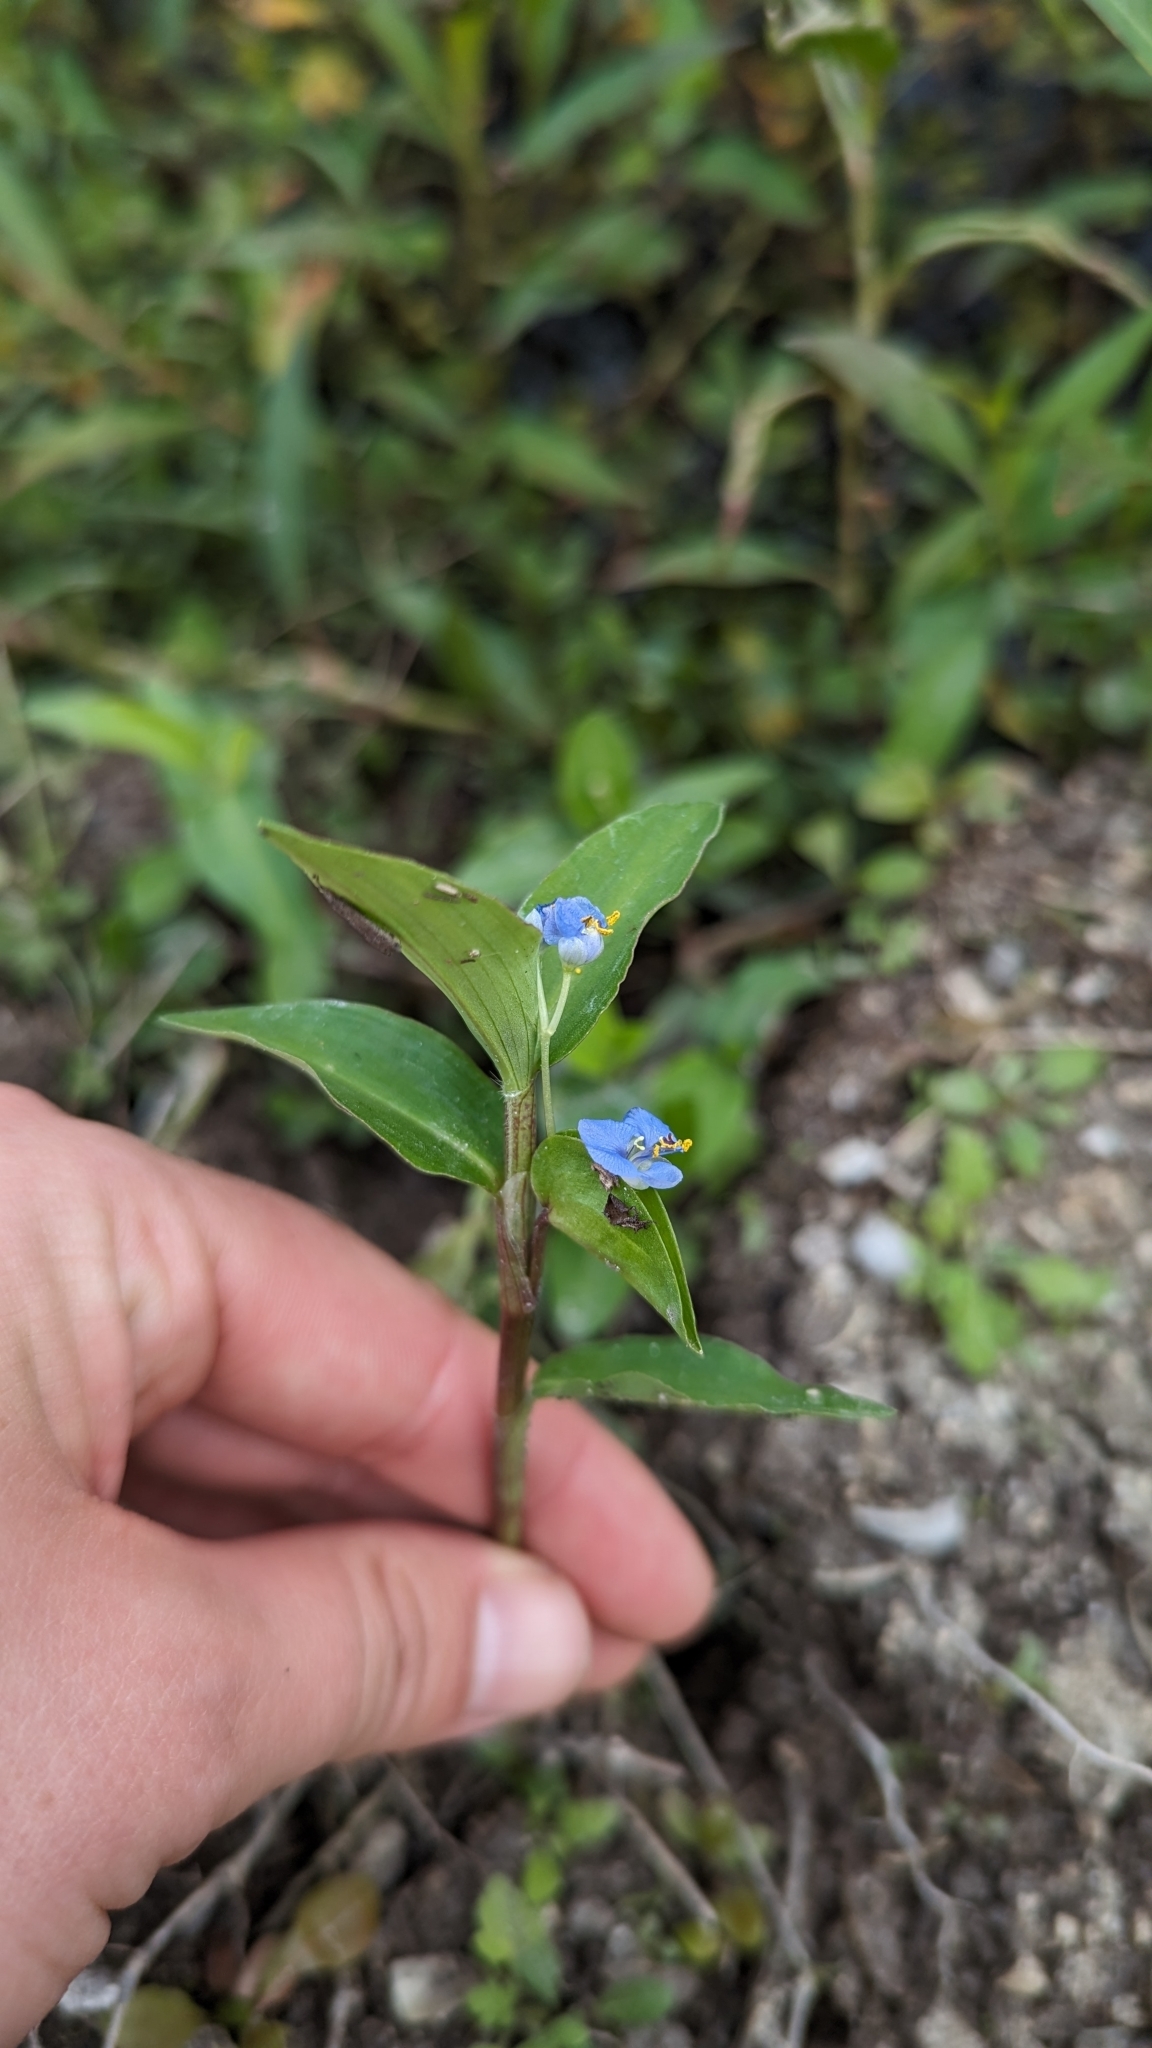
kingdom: Plantae
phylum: Tracheophyta
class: Liliopsida
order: Commelinales
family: Commelinaceae
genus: Commelina
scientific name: Commelina diffusa
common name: Climbing dayflower
